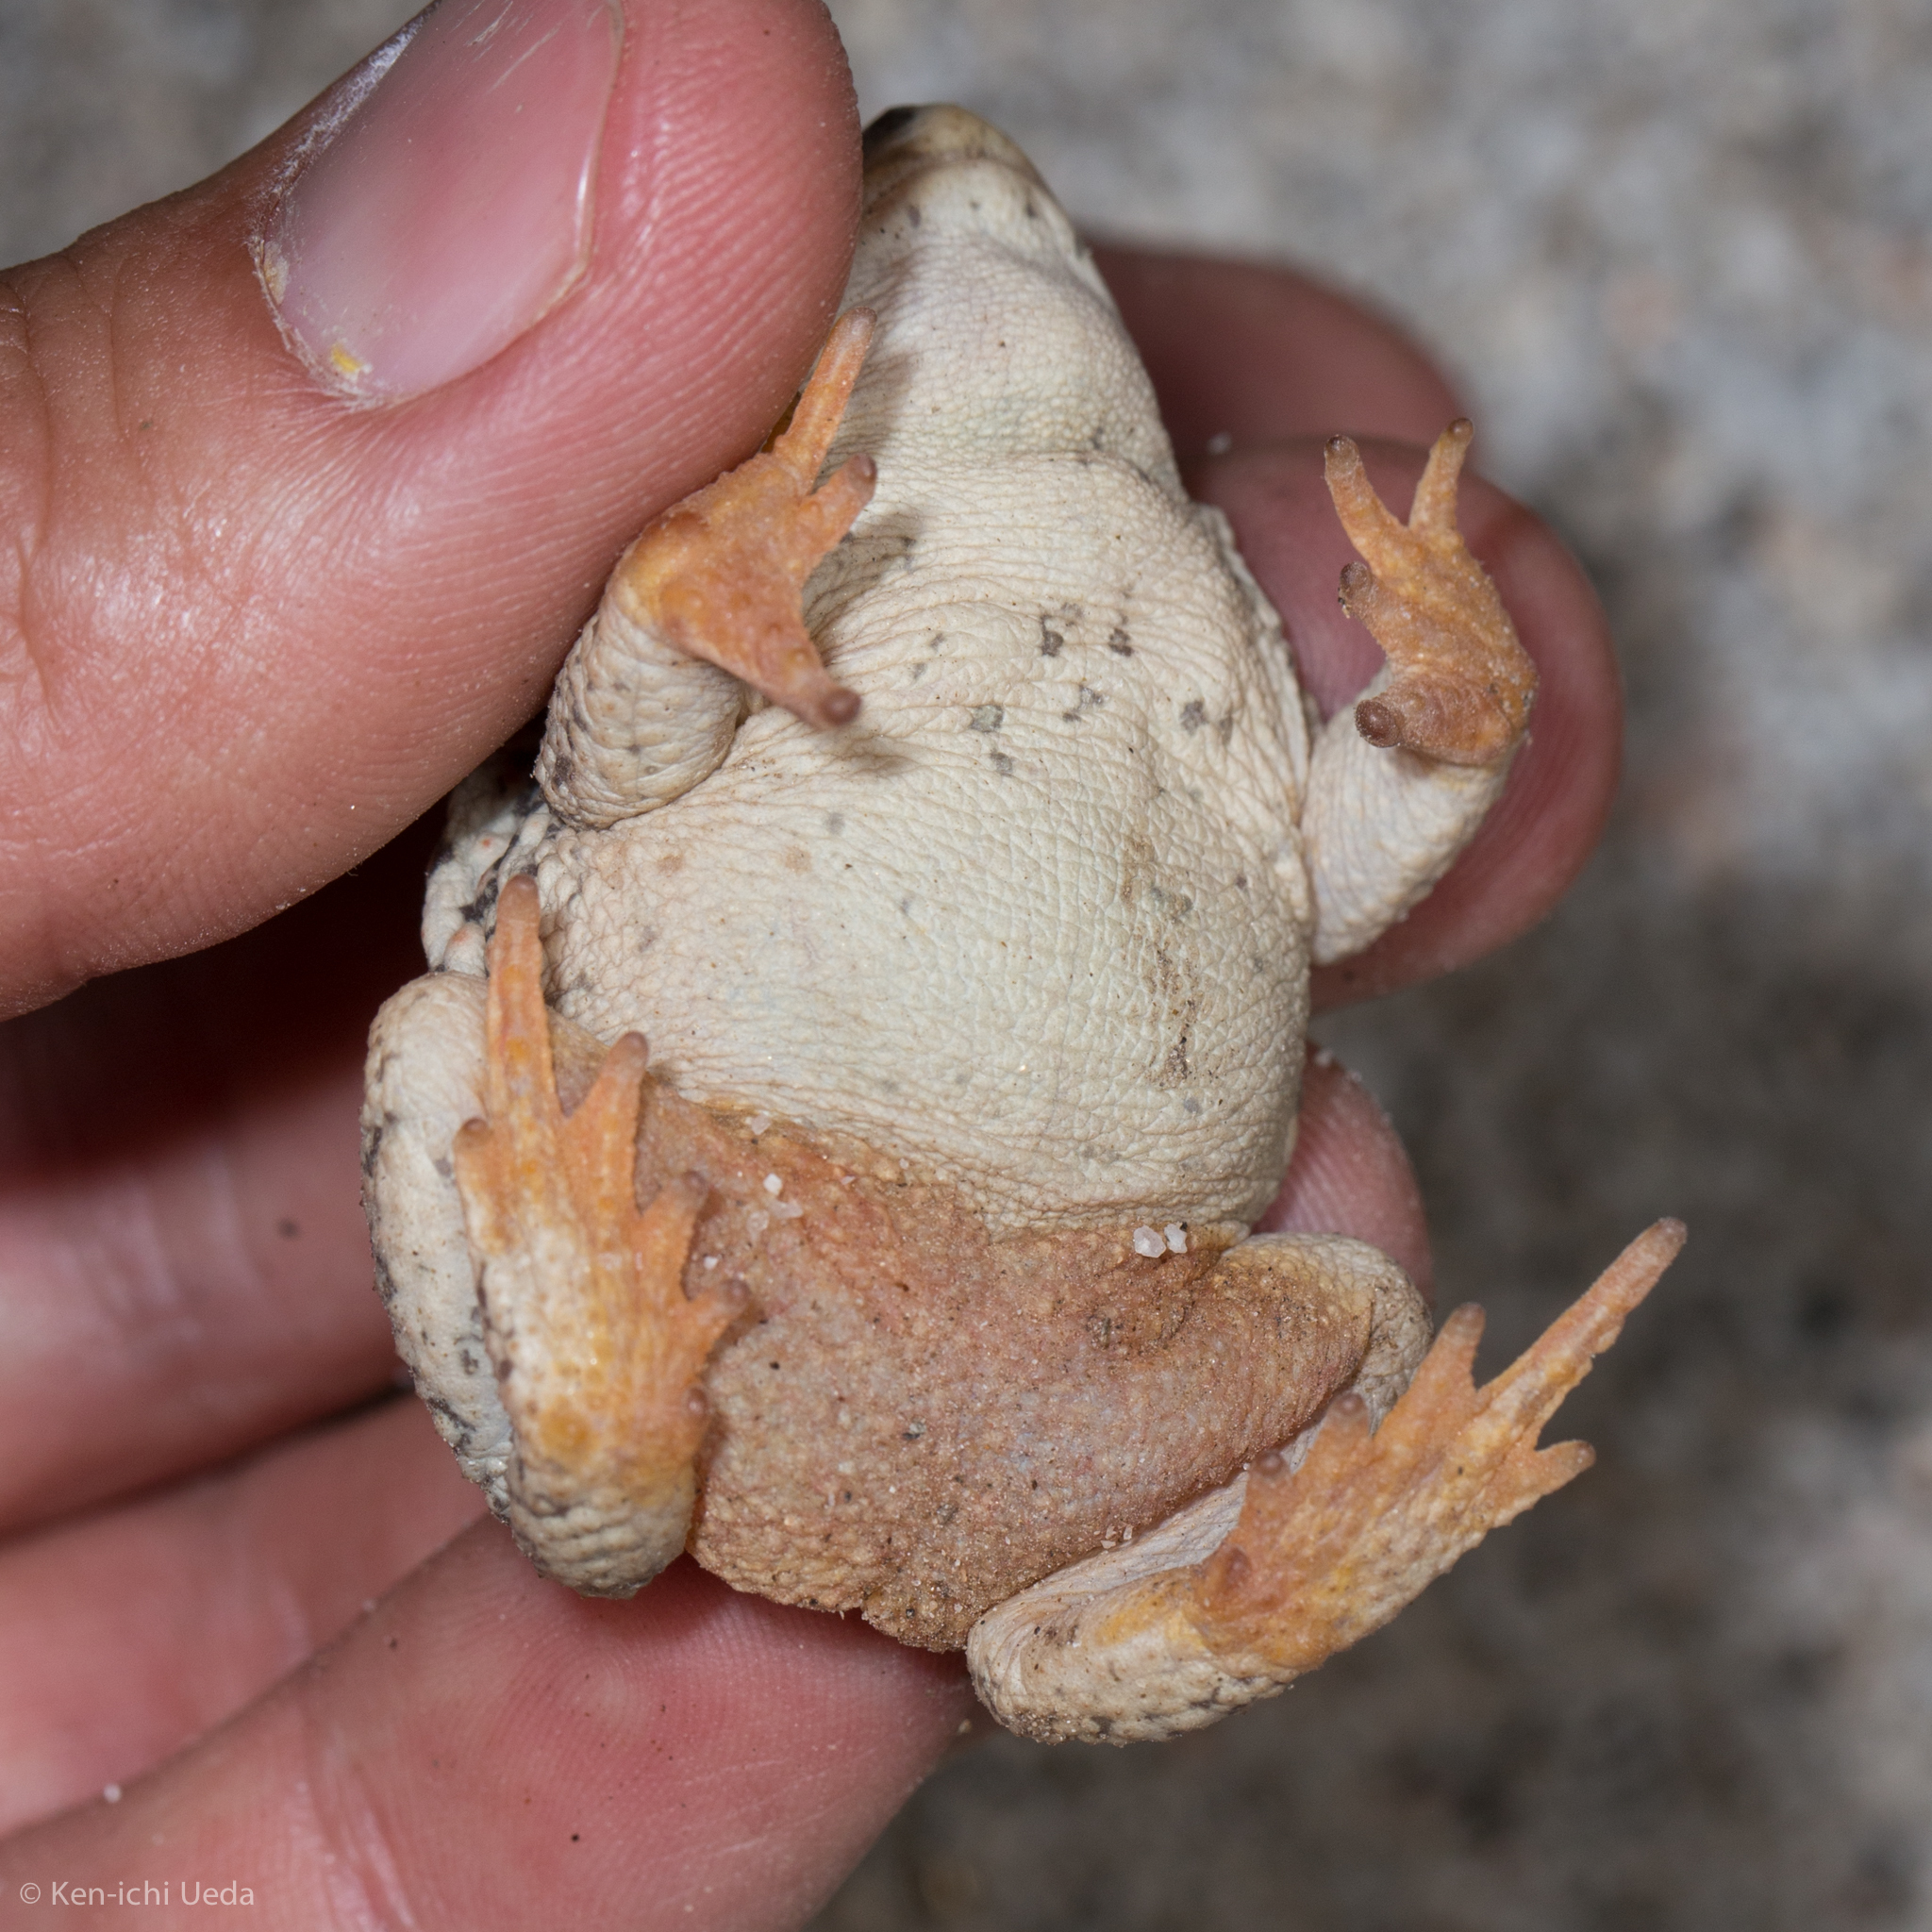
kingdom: Animalia
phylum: Chordata
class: Amphibia
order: Anura
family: Bufonidae
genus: Anaxyrus
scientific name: Anaxyrus punctatus
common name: Red-spotted toad
